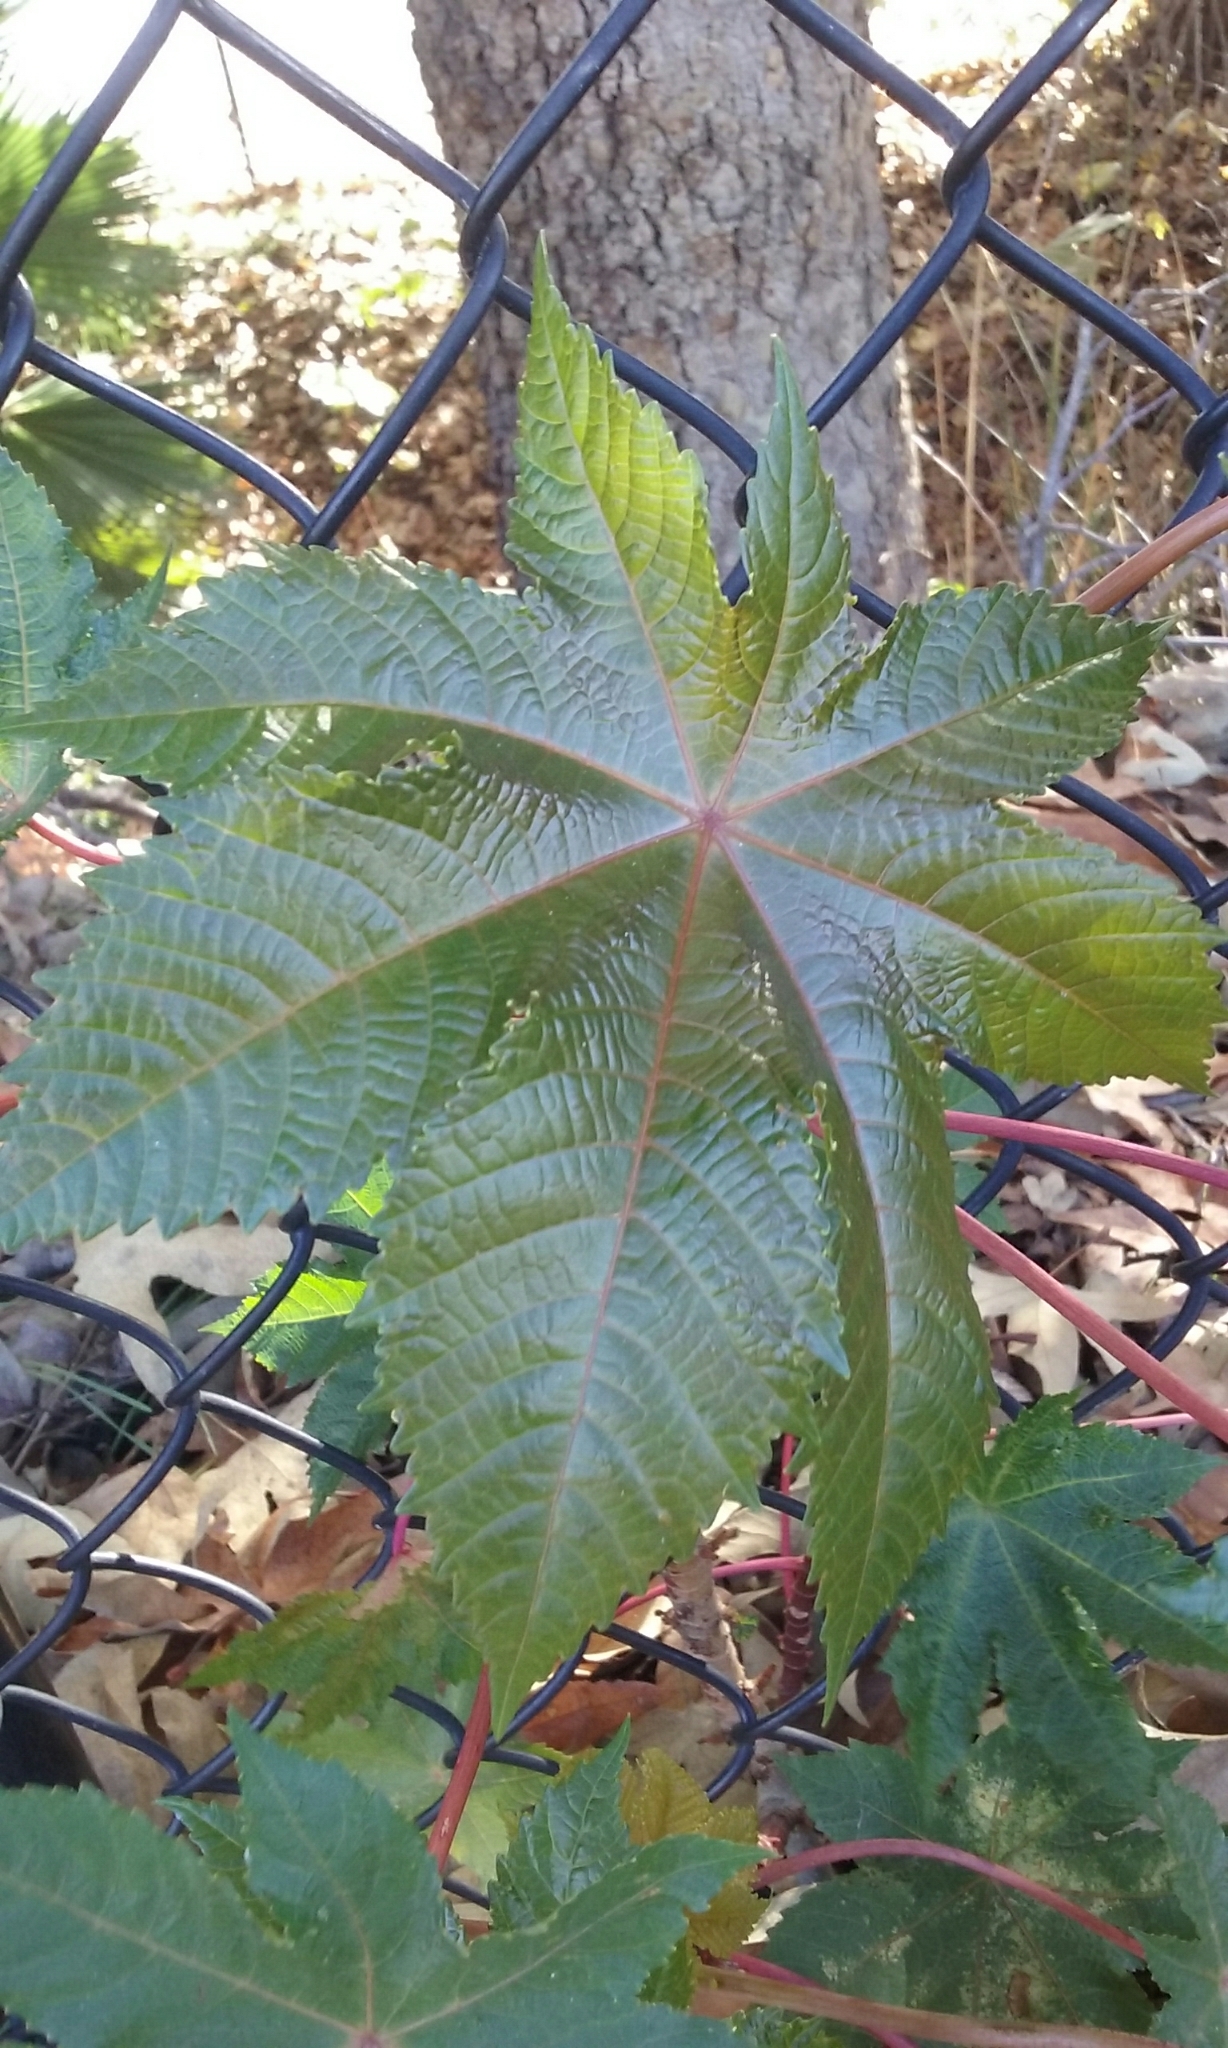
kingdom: Plantae
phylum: Tracheophyta
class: Magnoliopsida
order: Malpighiales
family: Euphorbiaceae
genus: Ricinus
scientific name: Ricinus communis
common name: Castor-oil-plant
